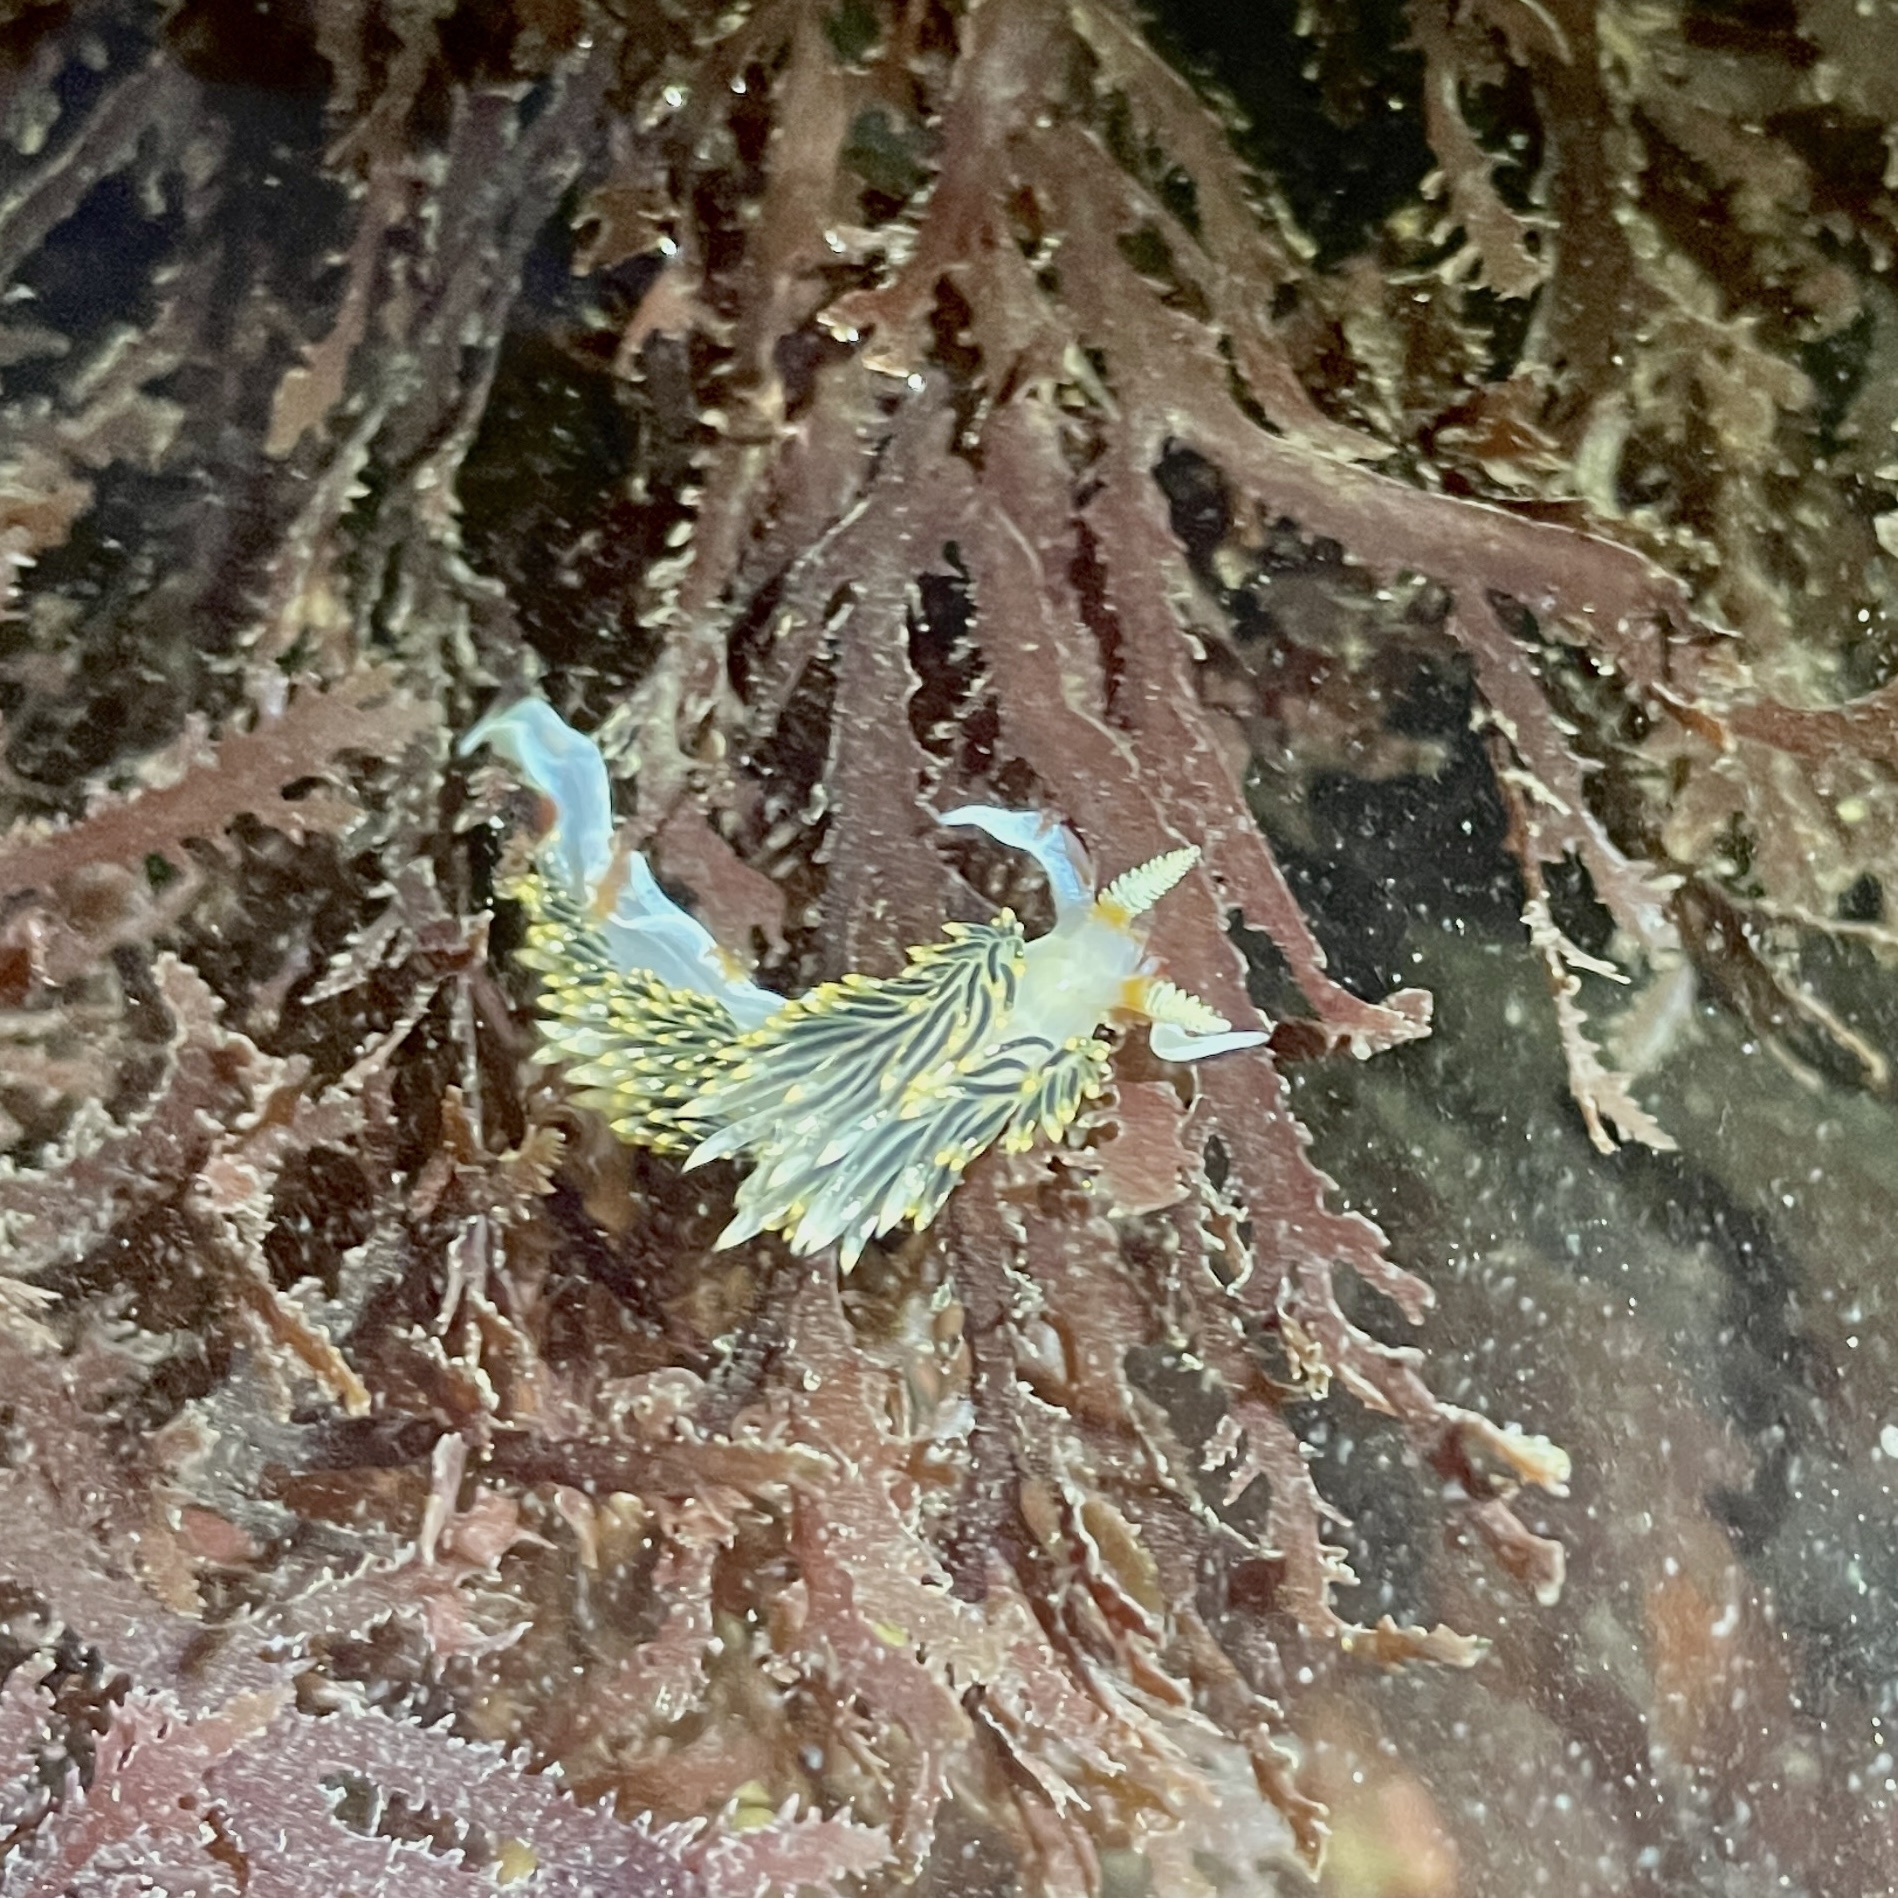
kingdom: Animalia
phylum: Mollusca
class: Gastropoda
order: Nudibranchia
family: Facelinidae
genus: Phidiana
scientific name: Phidiana hiltoni
